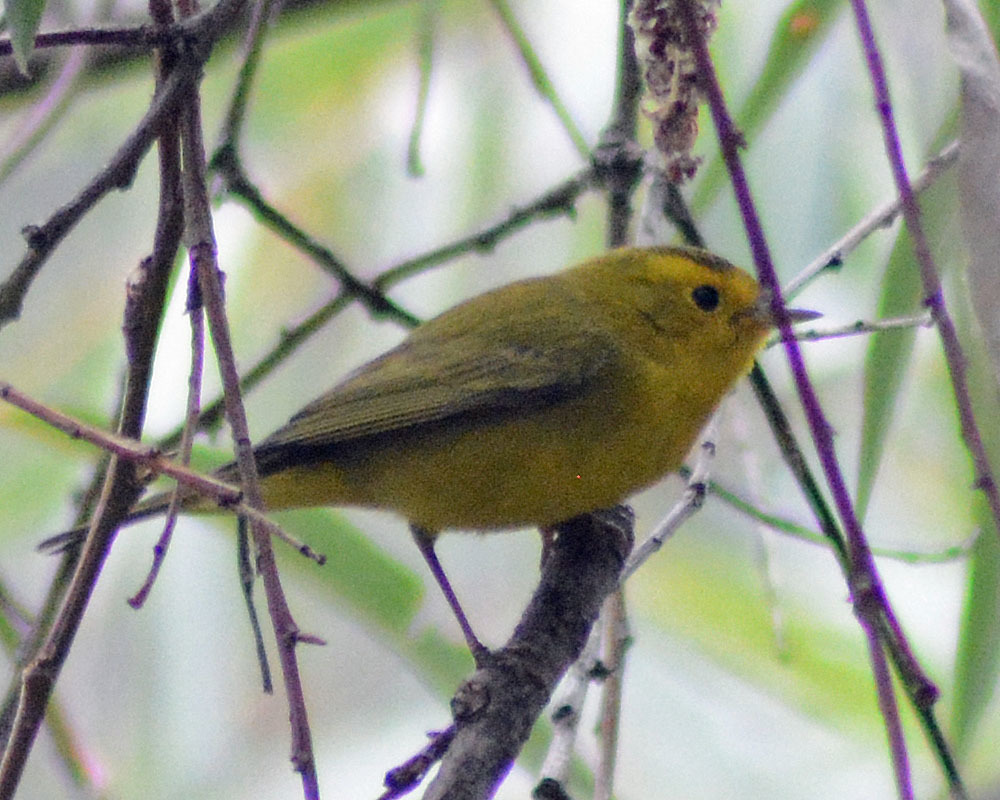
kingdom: Animalia
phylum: Chordata
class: Aves
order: Passeriformes
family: Parulidae
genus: Cardellina
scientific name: Cardellina pusilla
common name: Wilson's warbler
